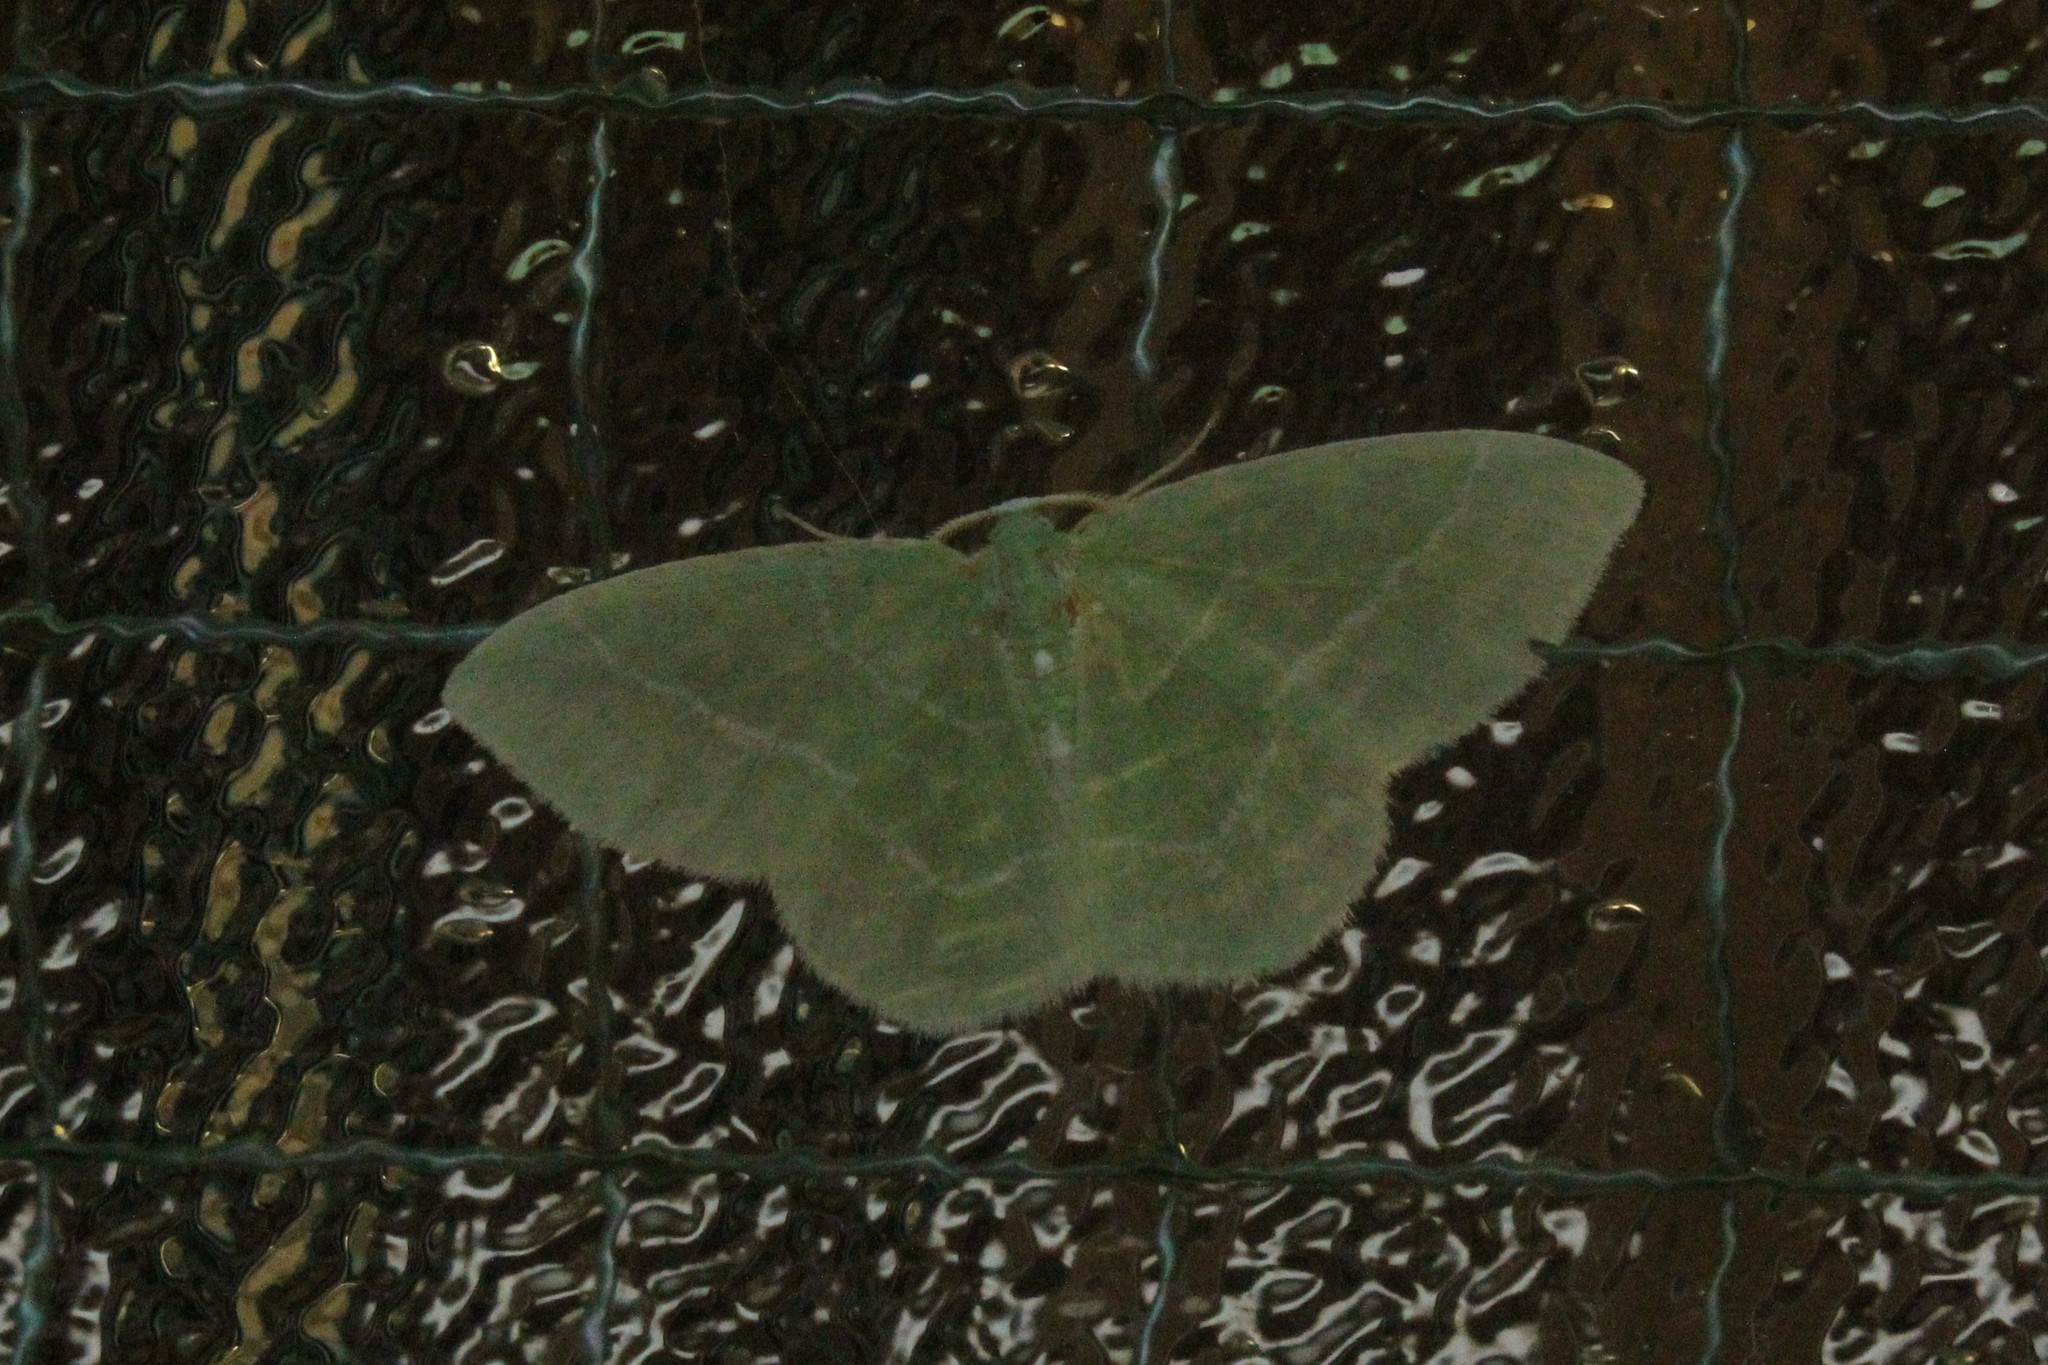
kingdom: Animalia
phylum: Arthropoda
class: Insecta
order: Lepidoptera
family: Geometridae
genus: Nemoria
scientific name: Nemoria mimosaria
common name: White-fringed emerald
